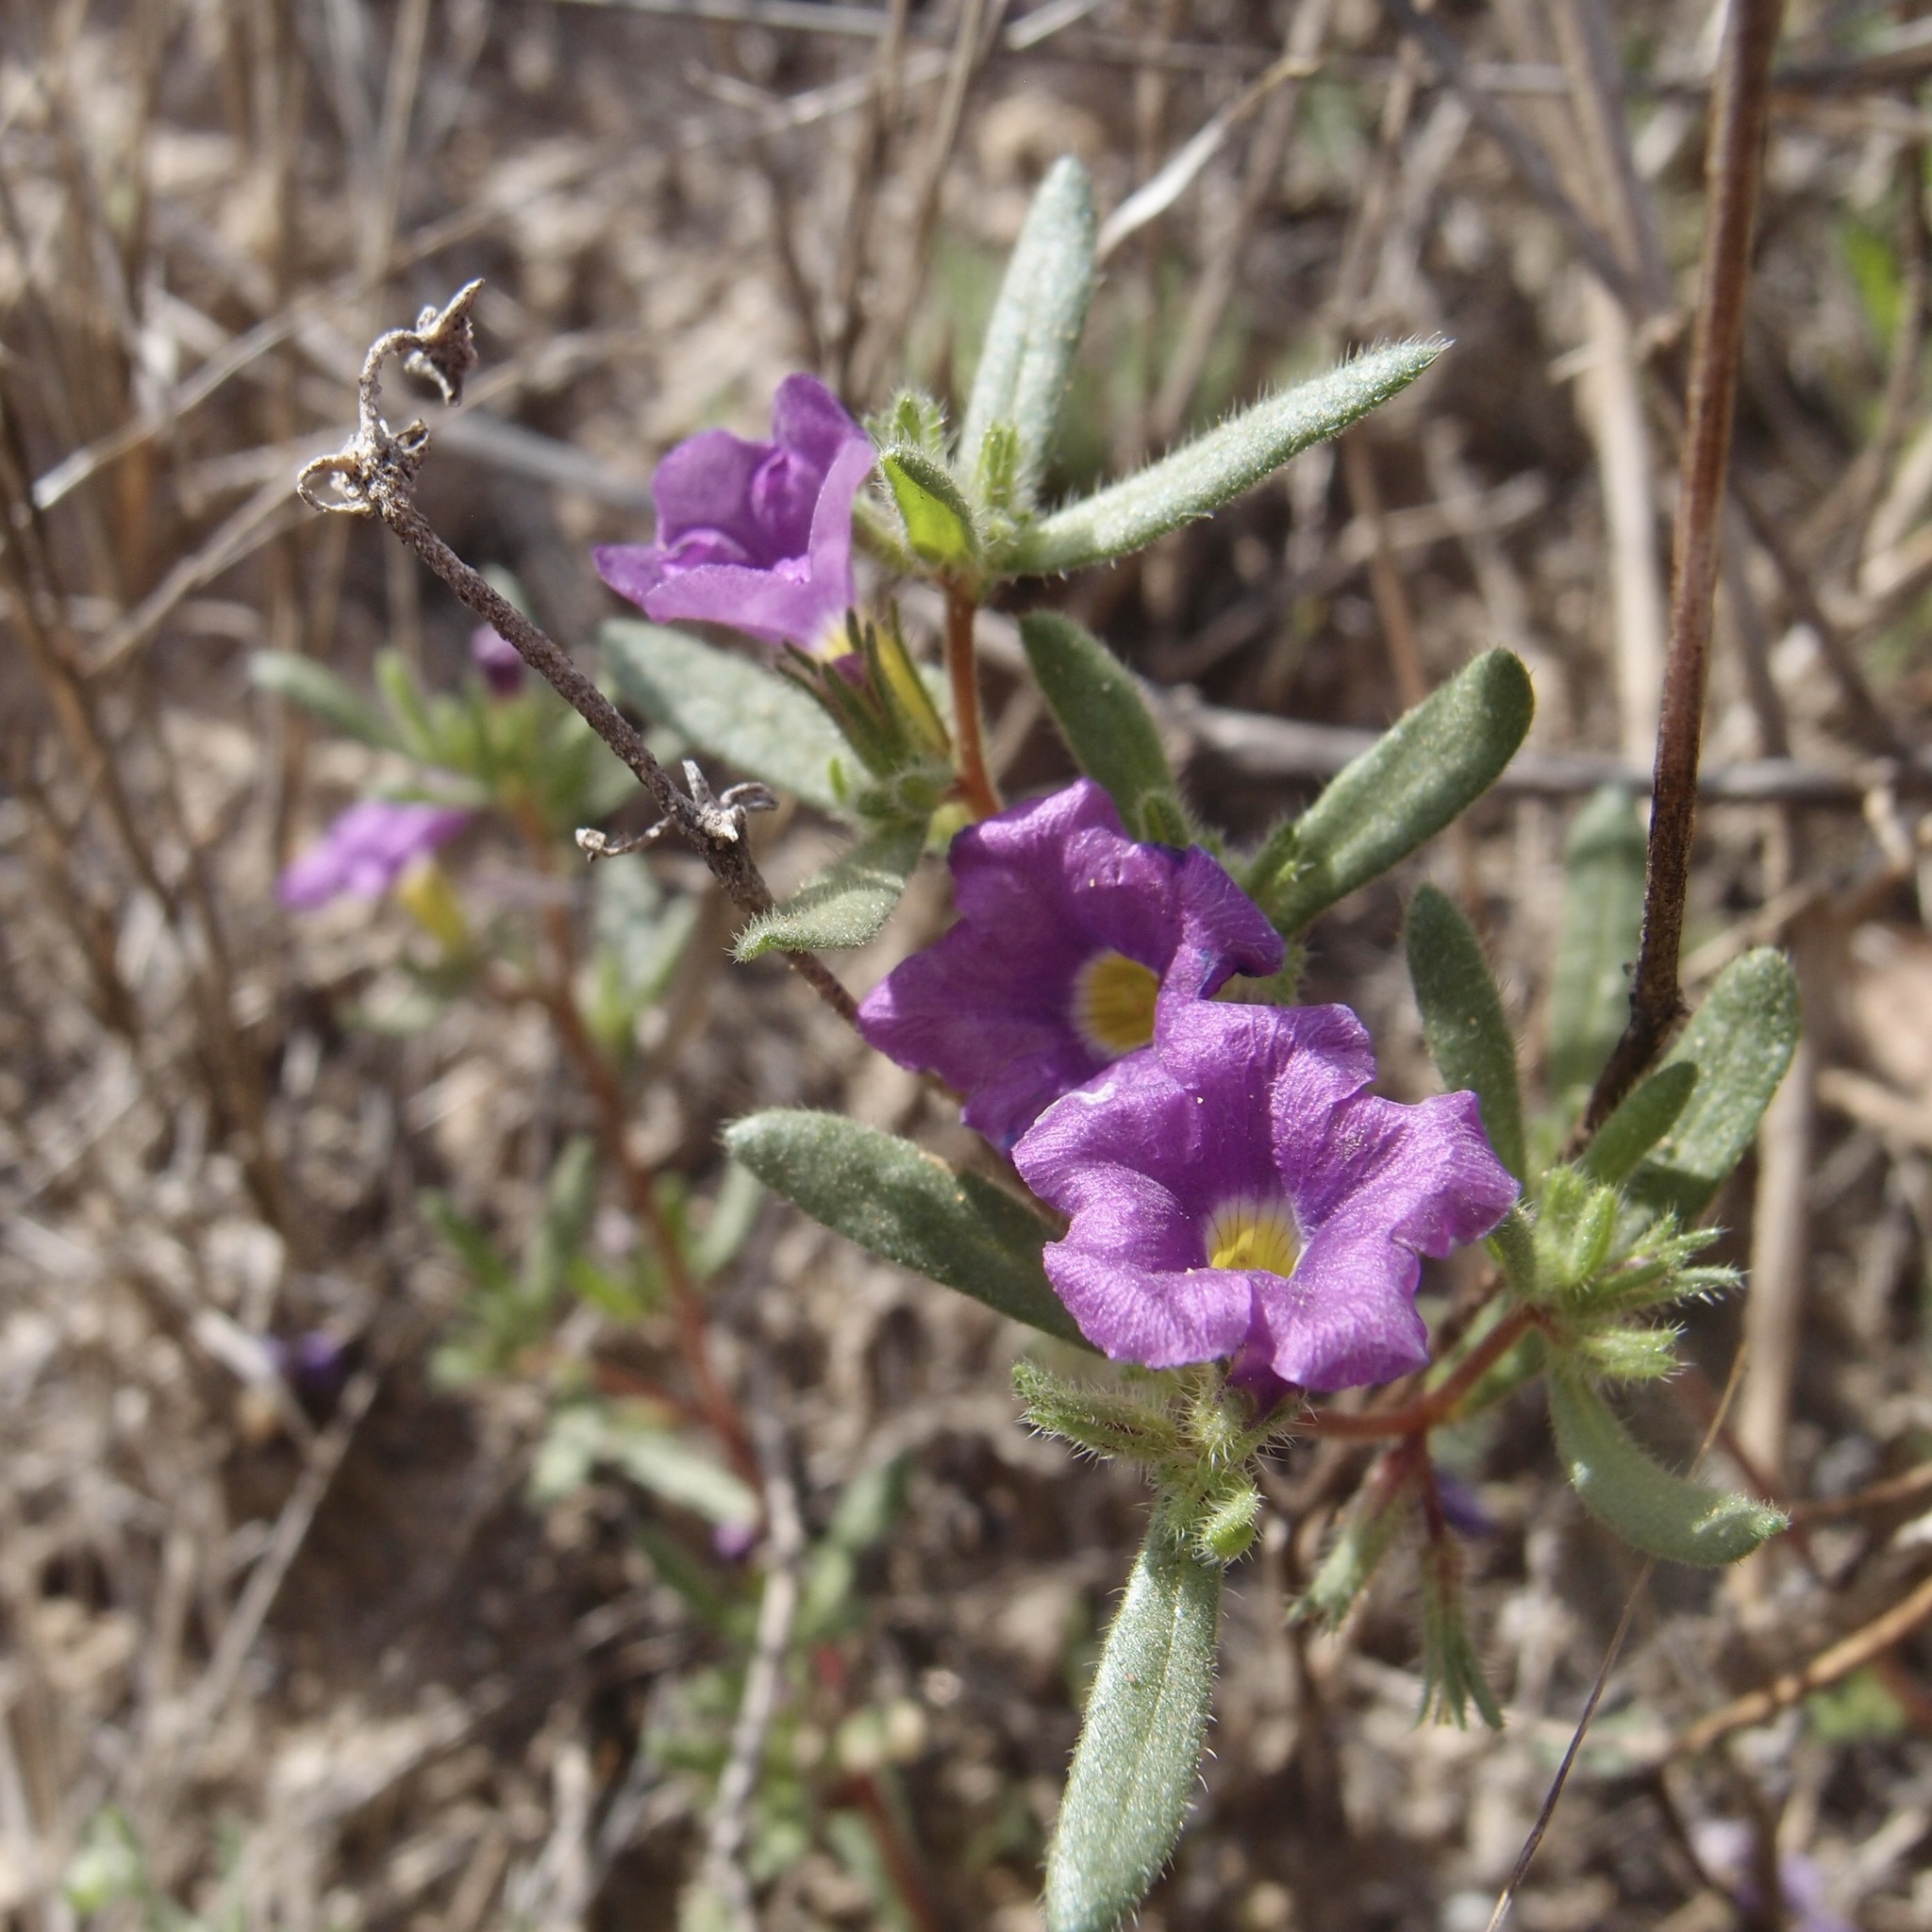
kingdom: Plantae
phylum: Tracheophyta
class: Magnoliopsida
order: Boraginales
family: Namaceae
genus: Nama
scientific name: Nama hispida
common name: Bristly nama
